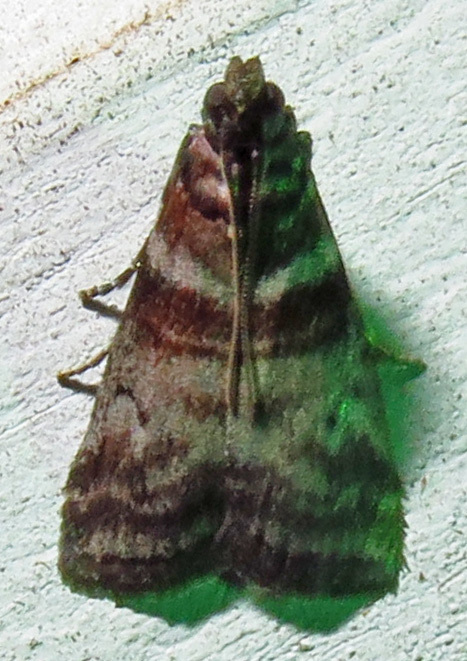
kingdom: Animalia
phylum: Arthropoda
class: Insecta
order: Lepidoptera
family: Pyralidae
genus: Sciota
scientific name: Sciota uvinella
